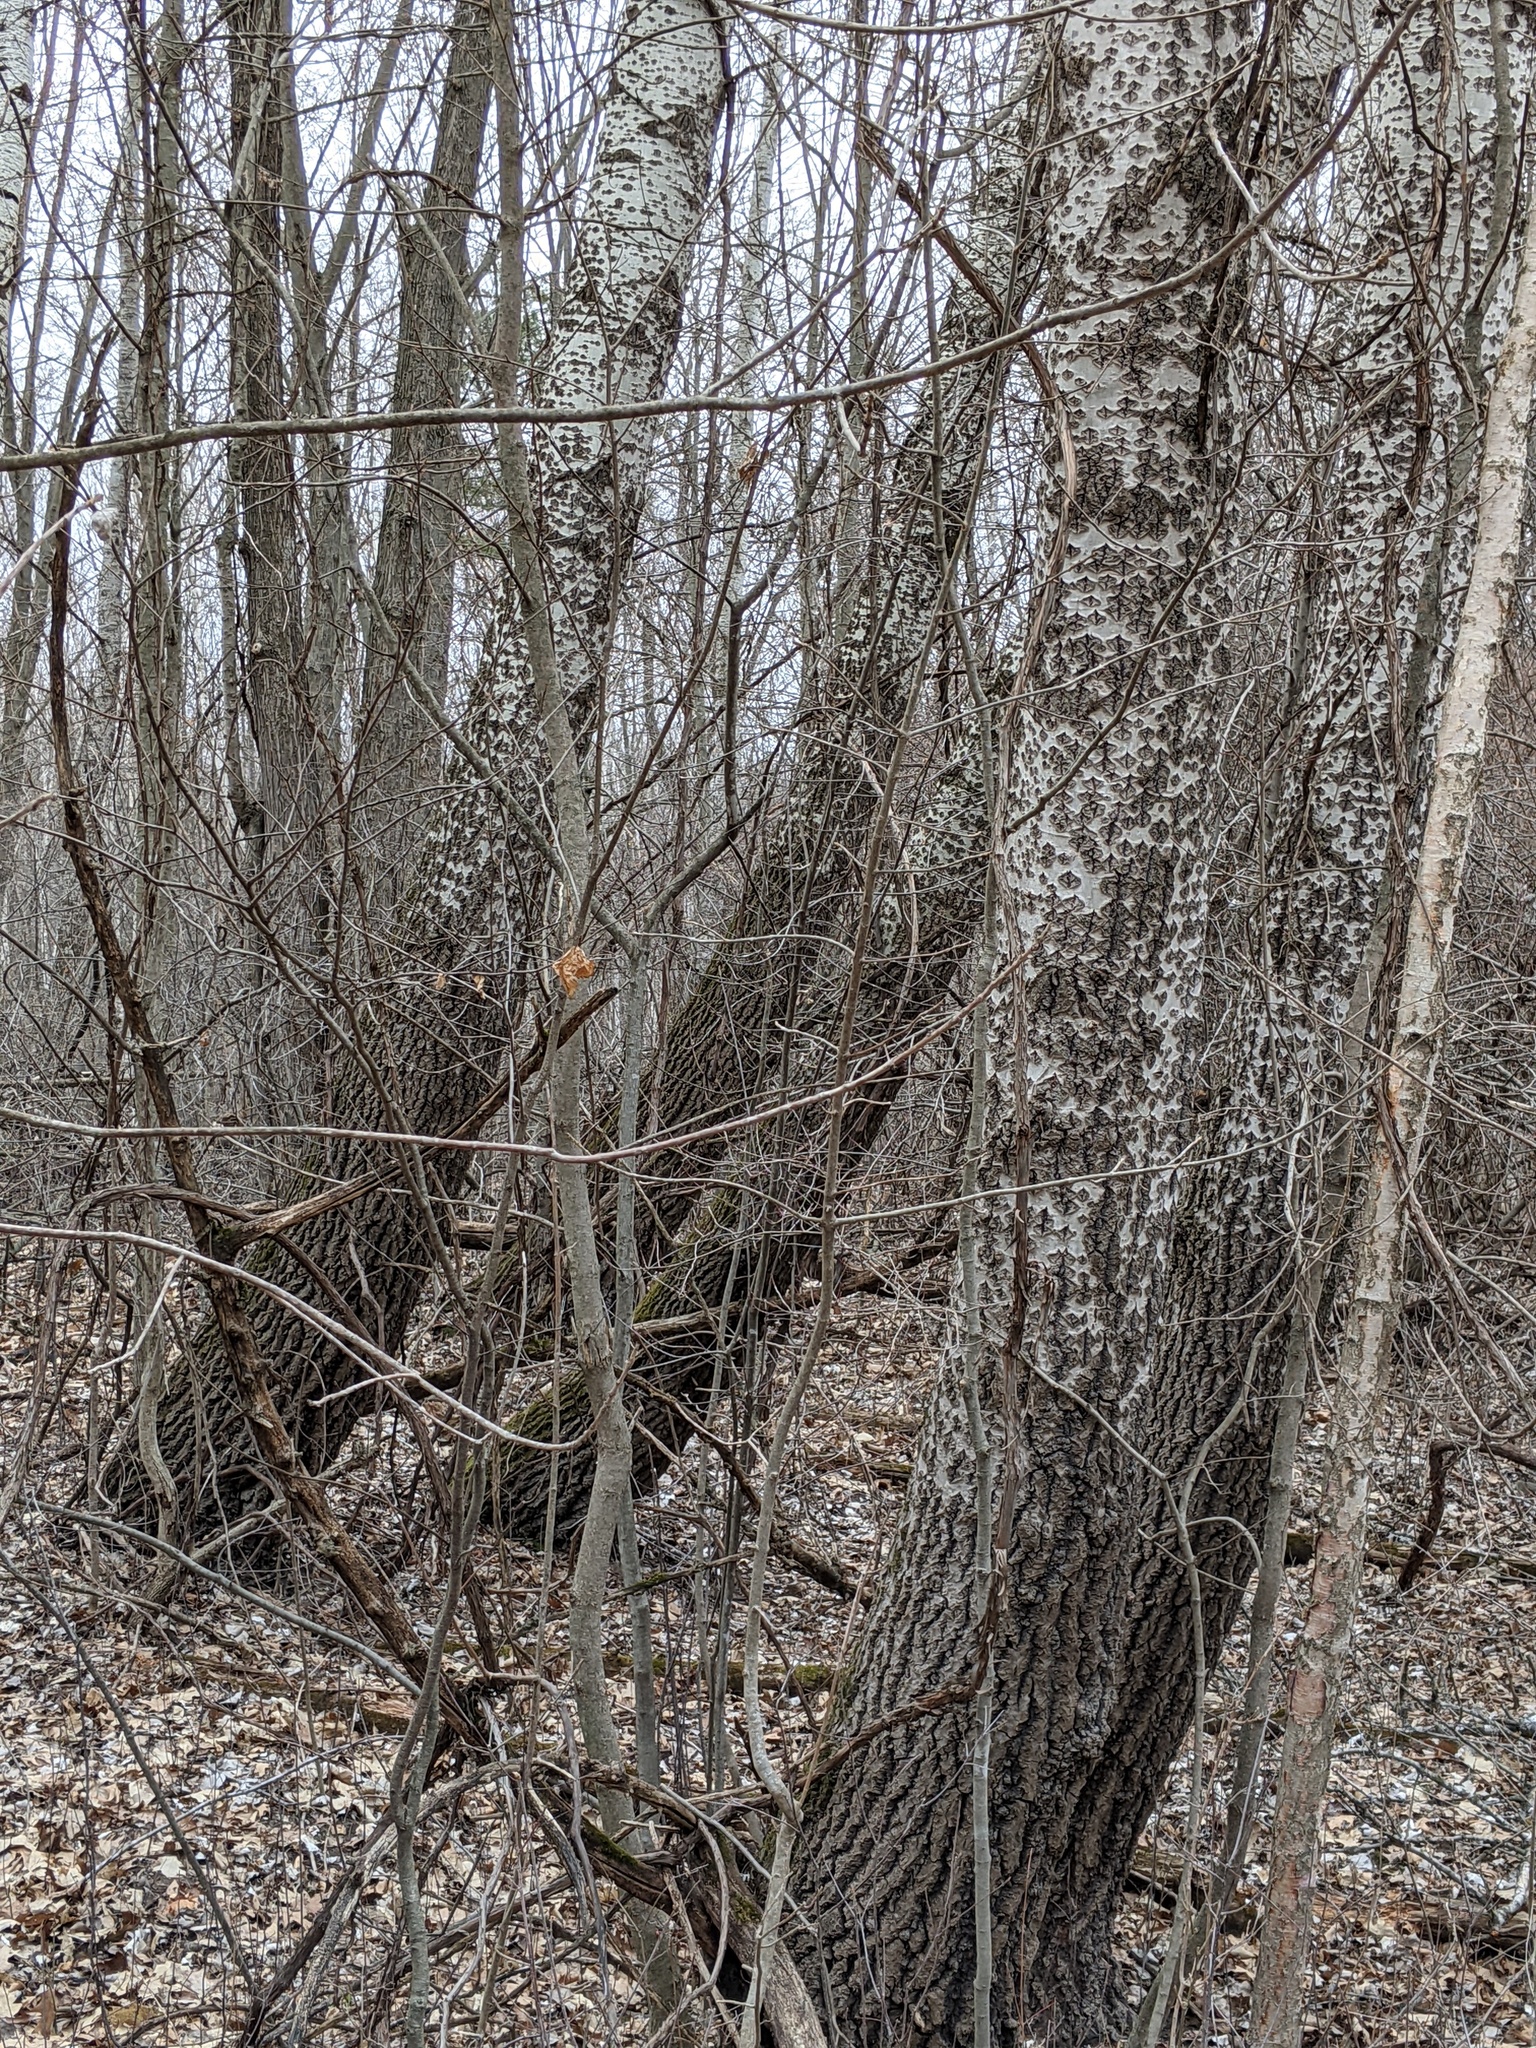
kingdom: Plantae
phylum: Tracheophyta
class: Magnoliopsida
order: Malpighiales
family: Salicaceae
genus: Populus
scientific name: Populus grandidentata
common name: Bigtooth aspen
